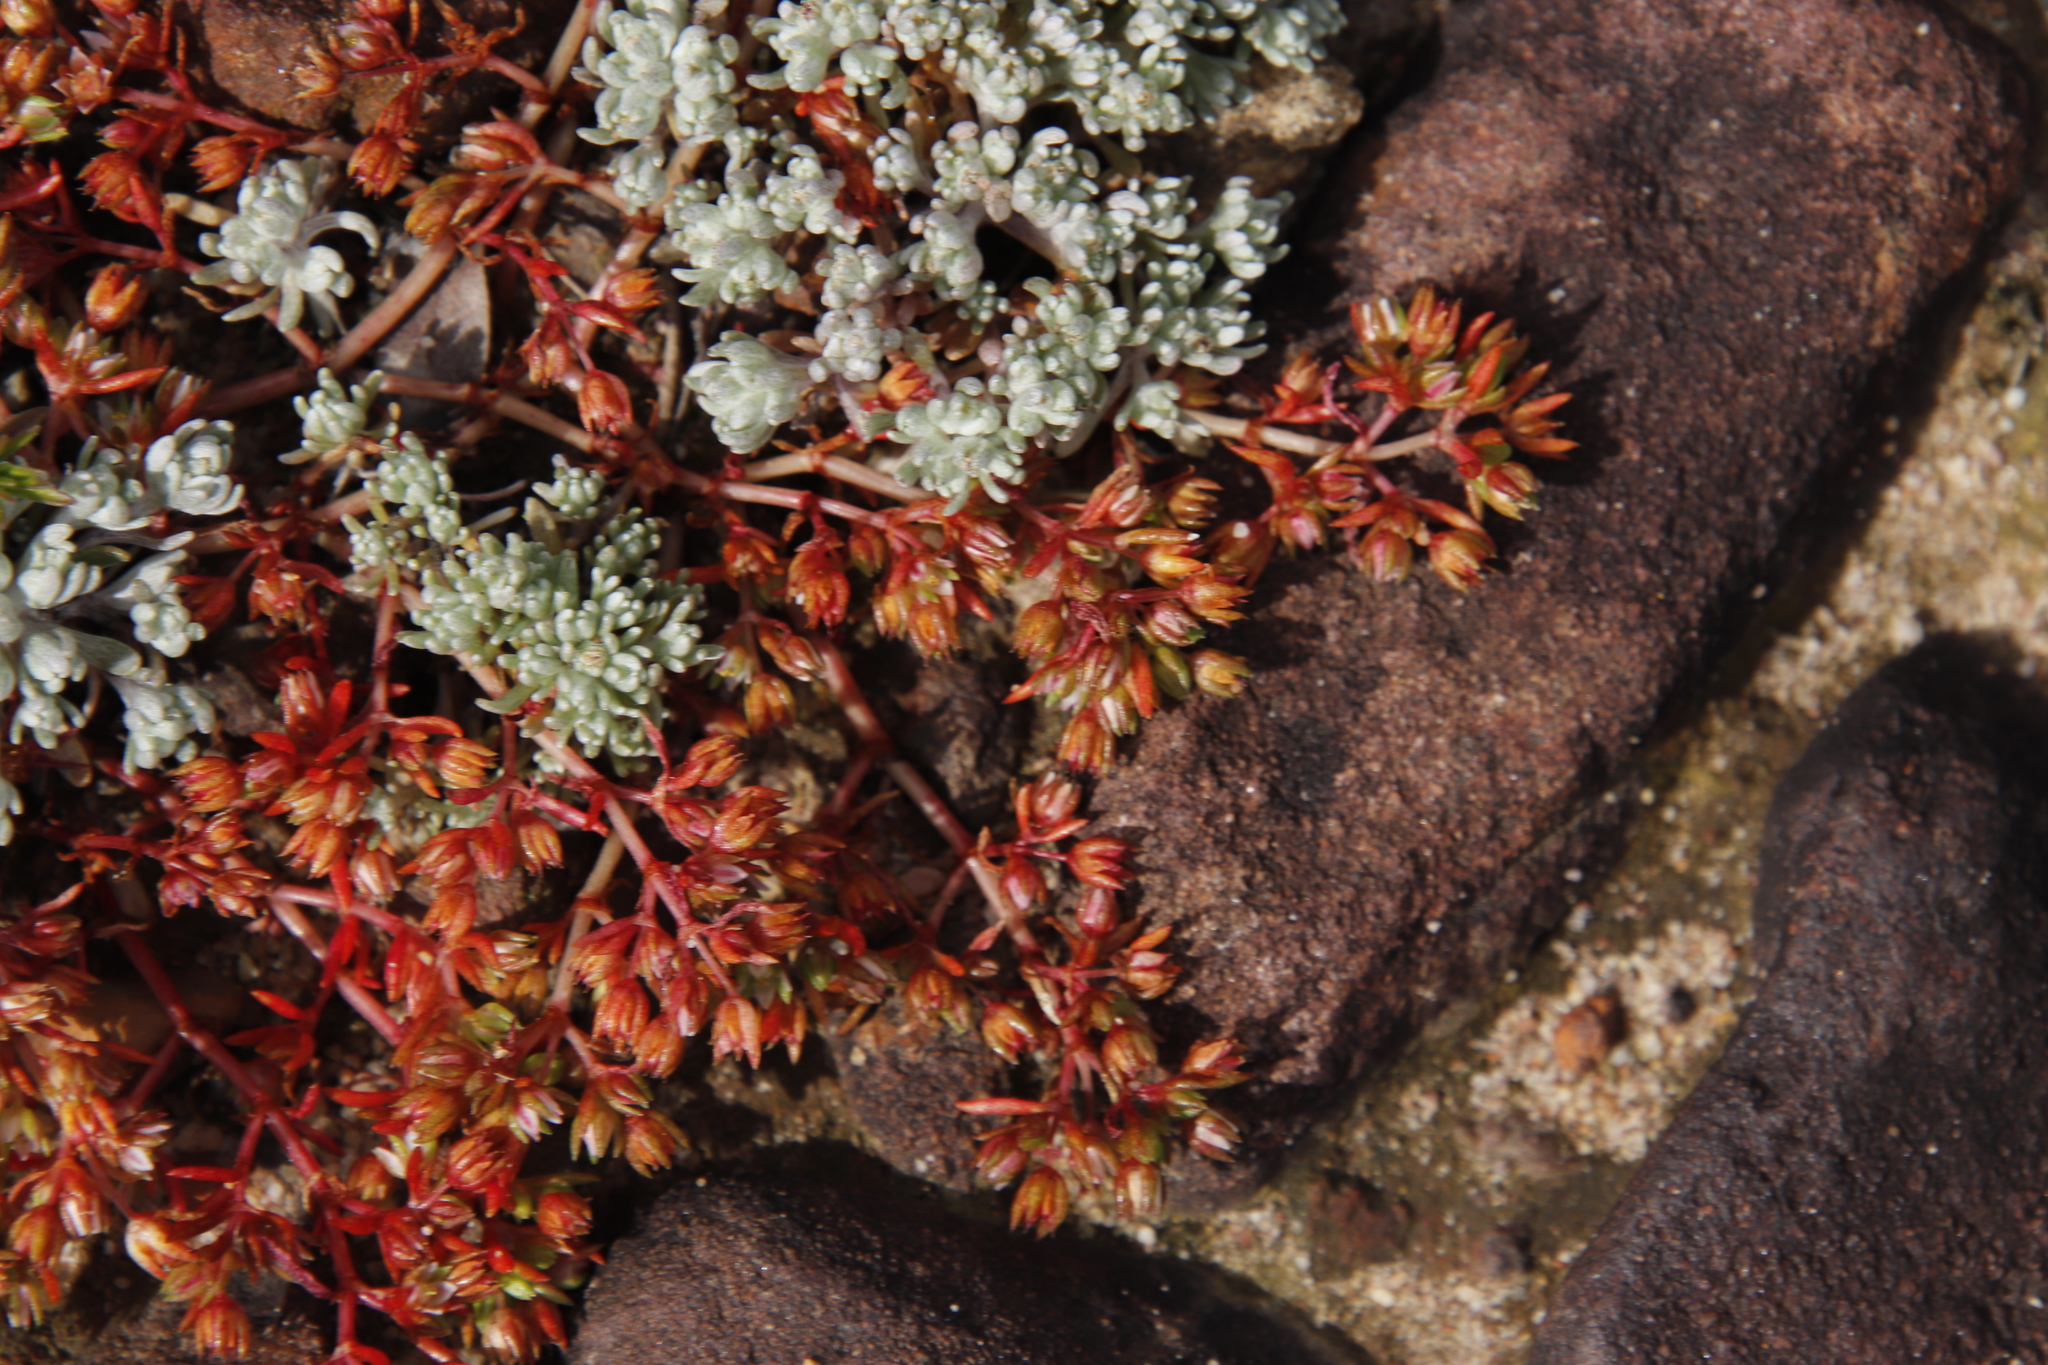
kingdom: Plantae
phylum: Tracheophyta
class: Magnoliopsida
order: Asterales
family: Asteraceae
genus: Lasiopogon
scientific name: Lasiopogon brachypterus
